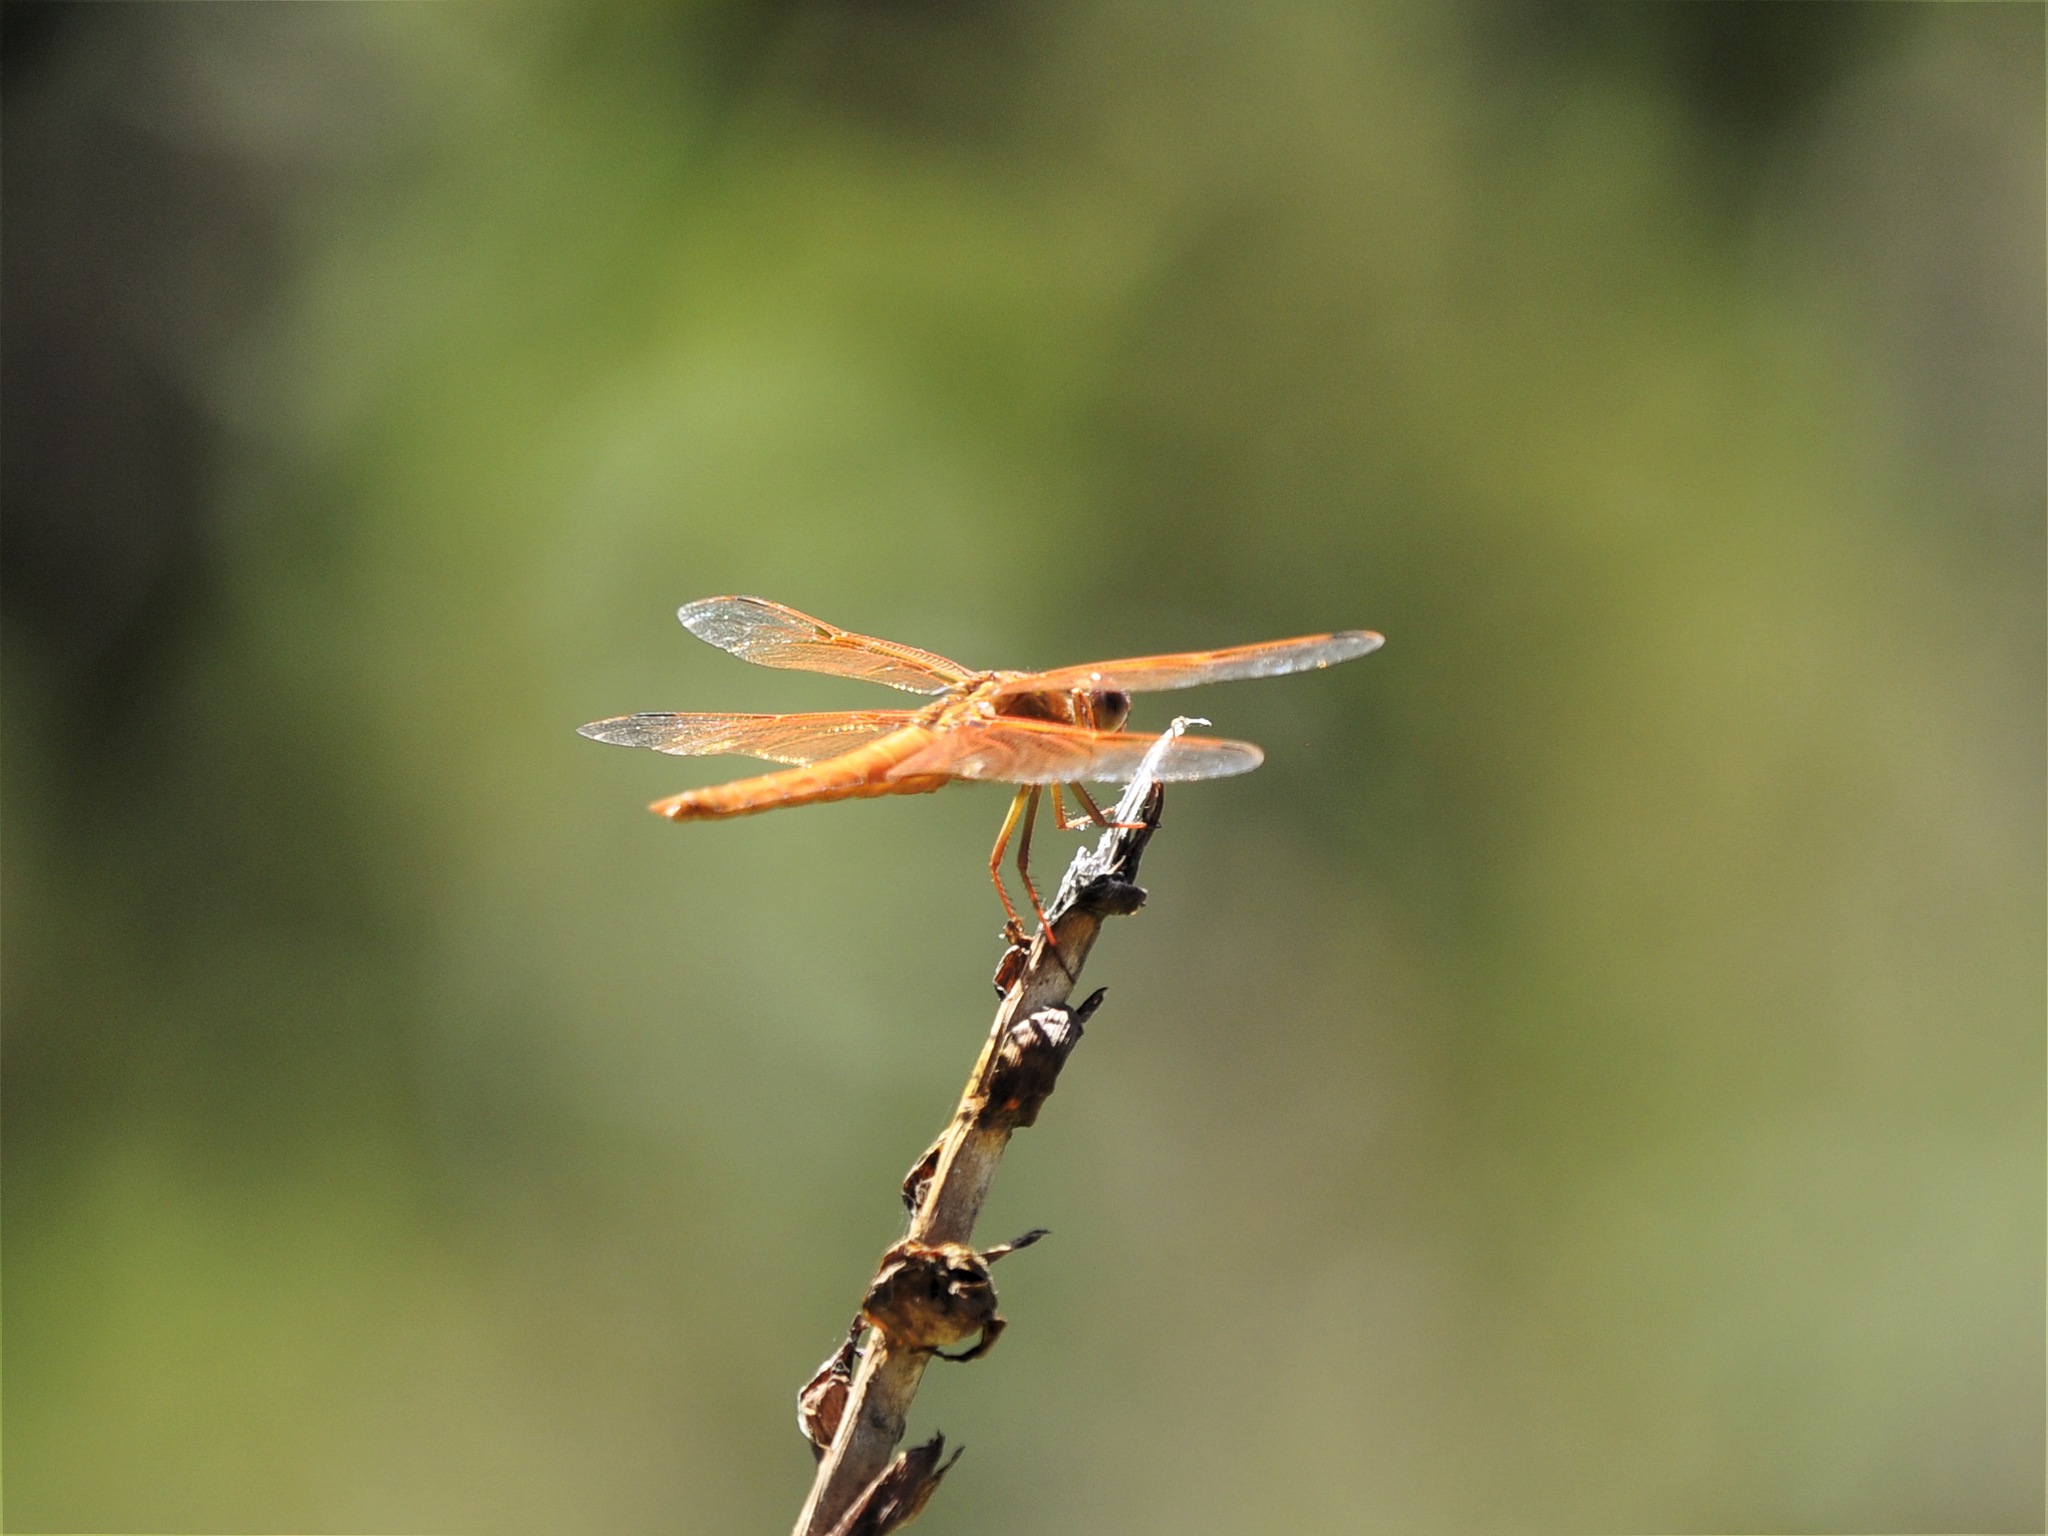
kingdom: Animalia
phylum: Arthropoda
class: Insecta
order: Odonata
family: Libellulidae
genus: Libellula
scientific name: Libellula saturata
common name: Flame skimmer
